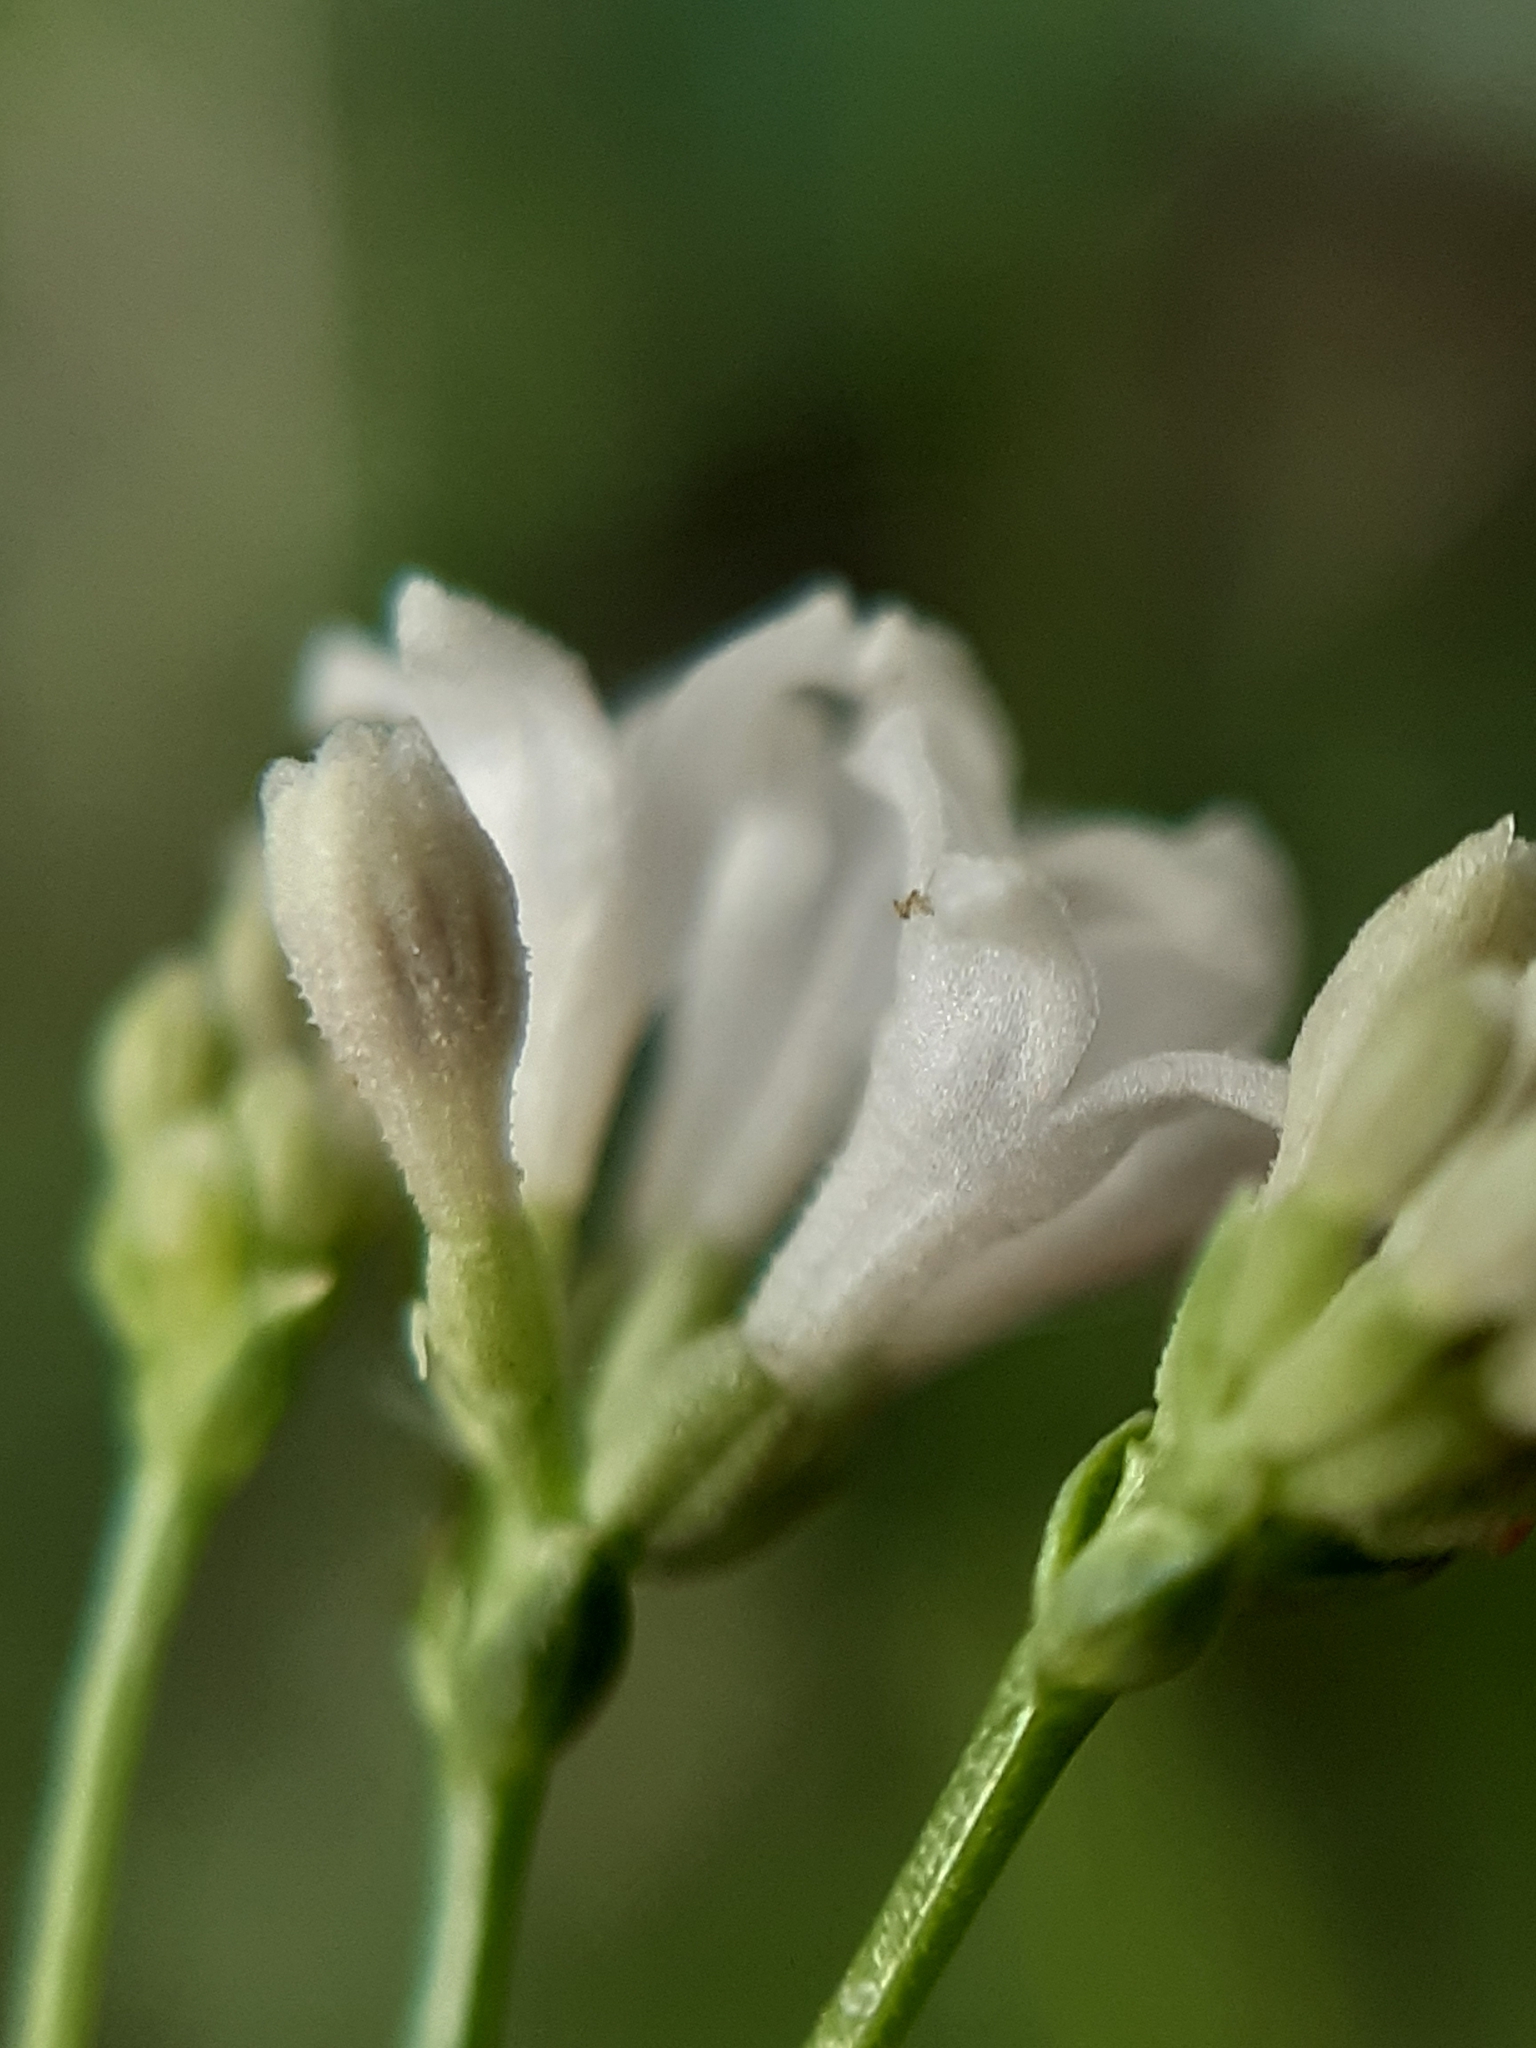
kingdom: Plantae
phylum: Tracheophyta
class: Magnoliopsida
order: Gentianales
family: Rubiaceae
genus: Cynanchica
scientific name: Cynanchica pyrenaica
